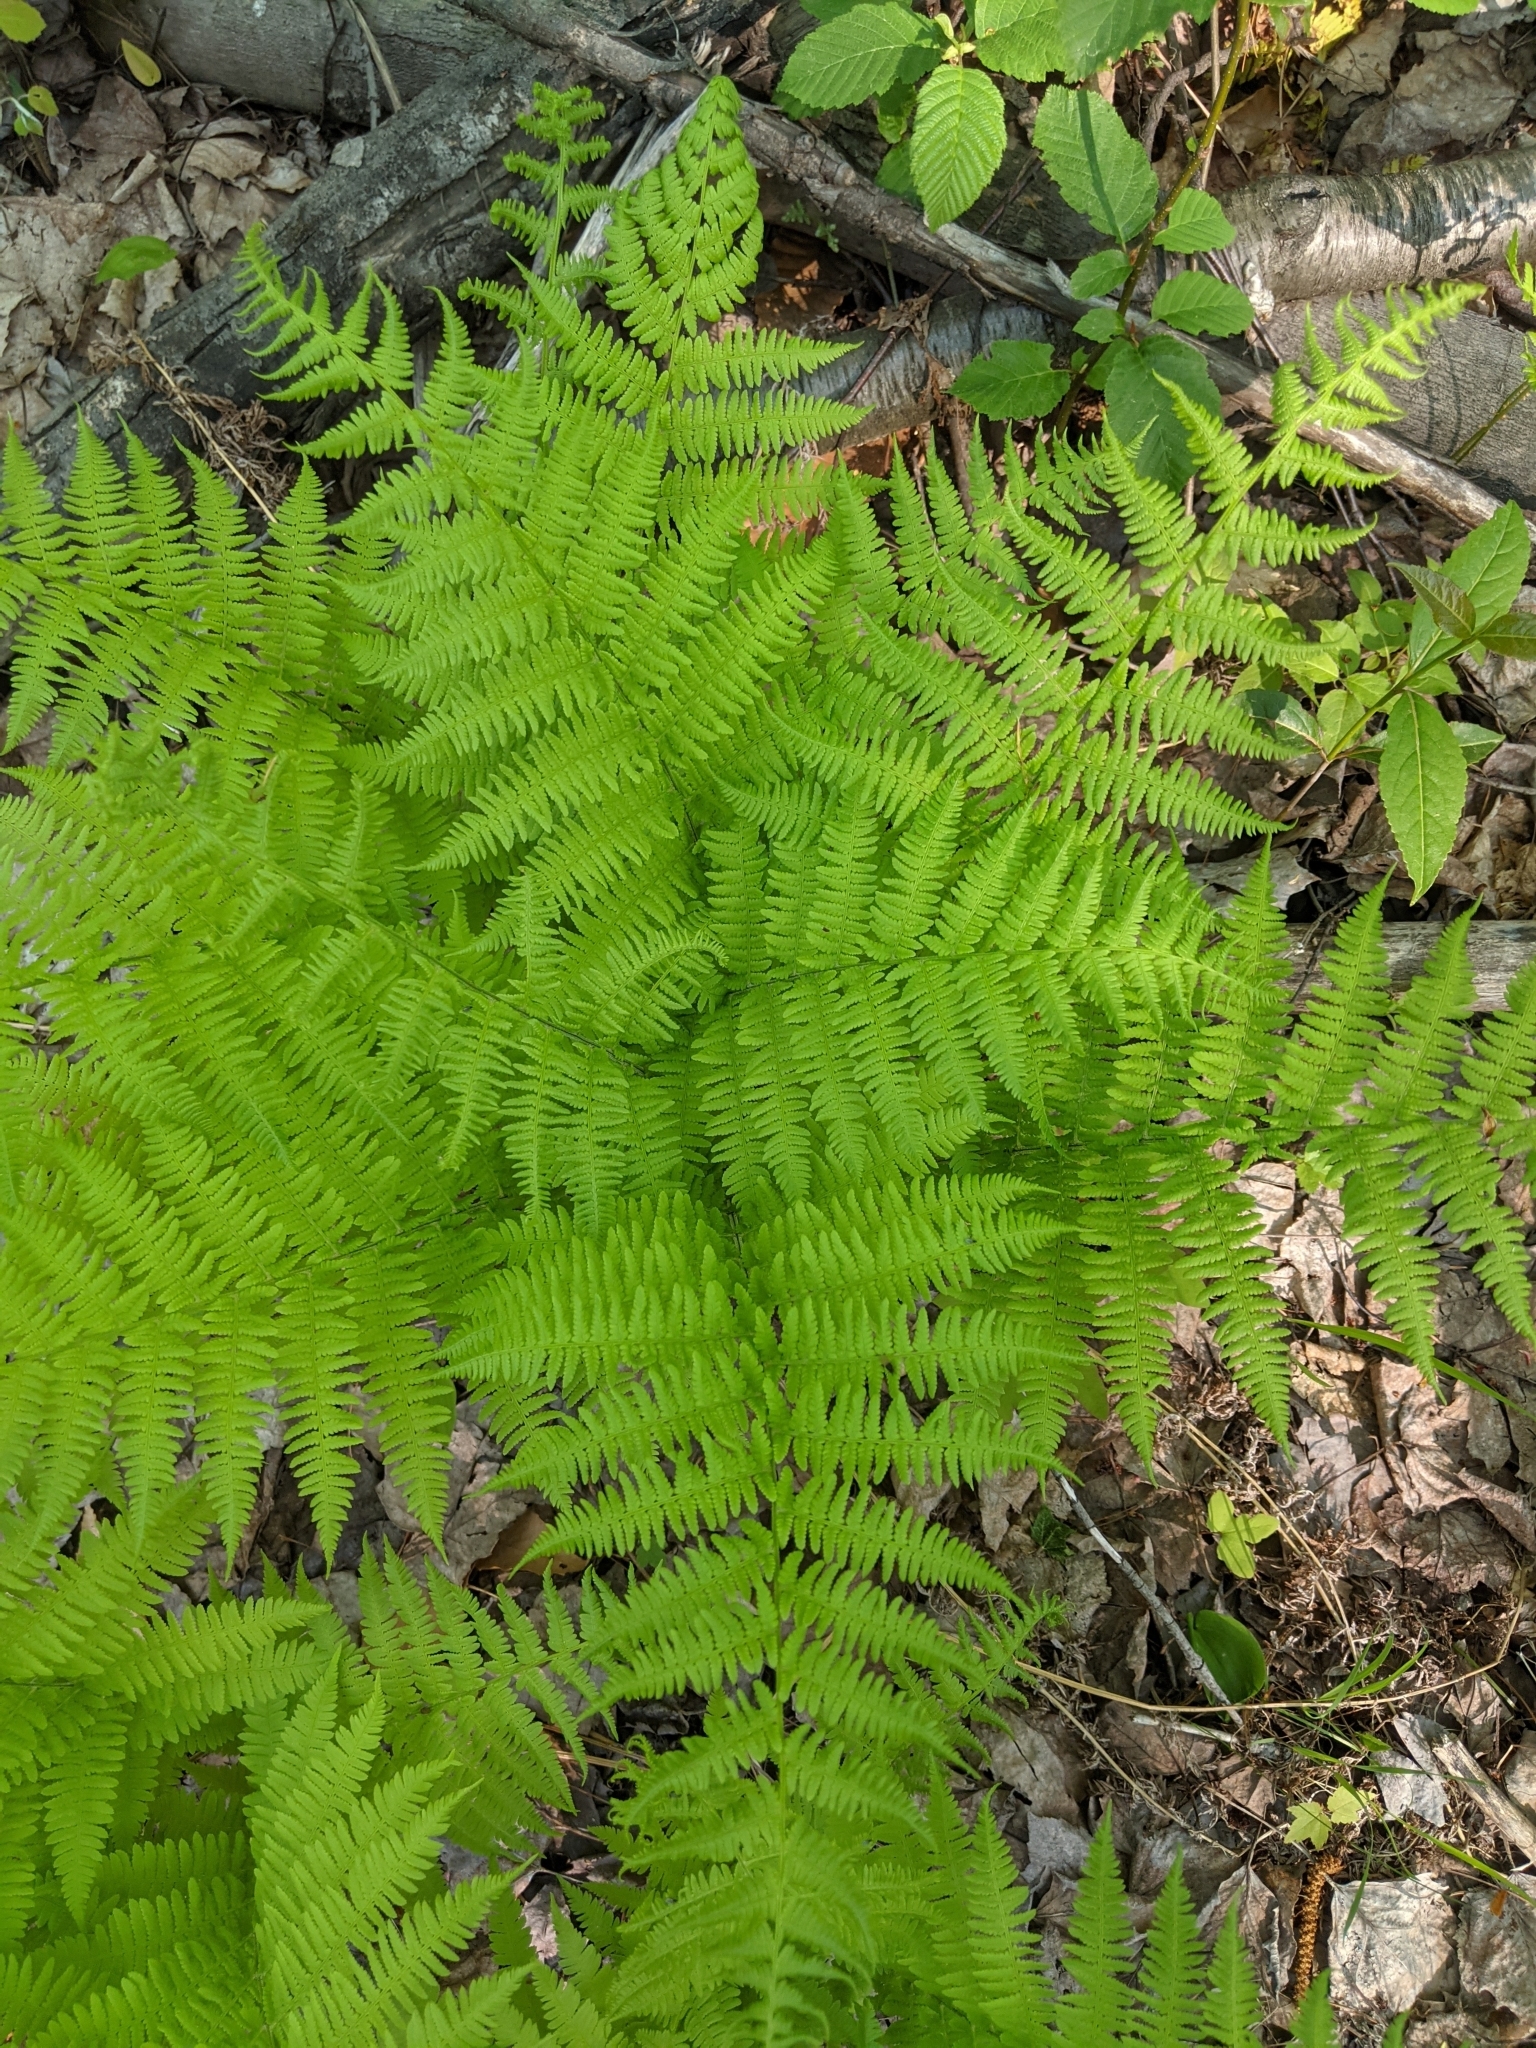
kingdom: Plantae
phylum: Tracheophyta
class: Polypodiopsida
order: Polypodiales
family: Athyriaceae
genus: Athyrium
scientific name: Athyrium angustum
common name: Northern lady fern
